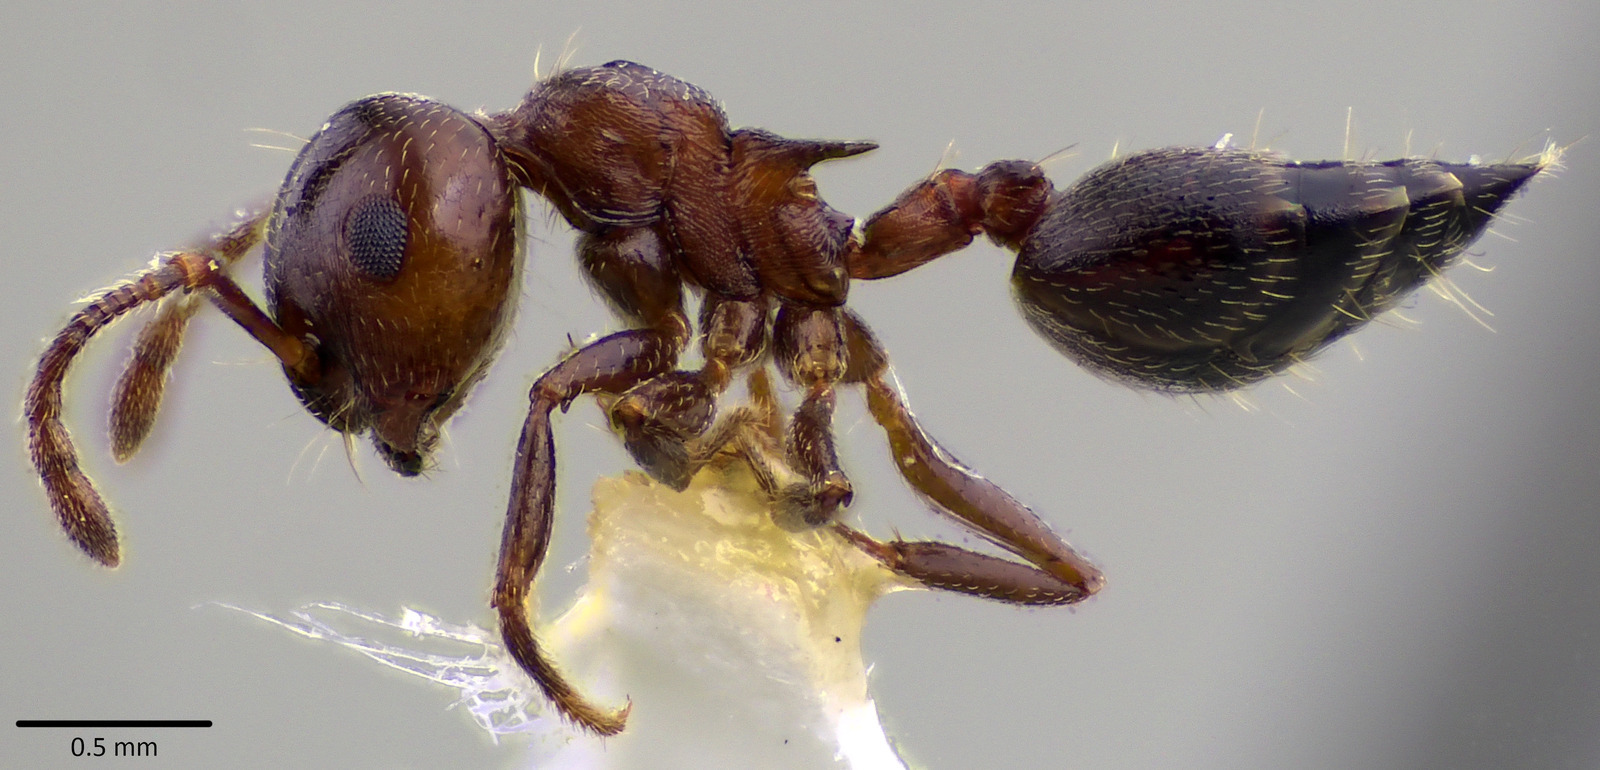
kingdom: Animalia
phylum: Arthropoda
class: Insecta
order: Hymenoptera
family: Formicidae
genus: Crematogaster
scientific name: Crematogaster cerasi
